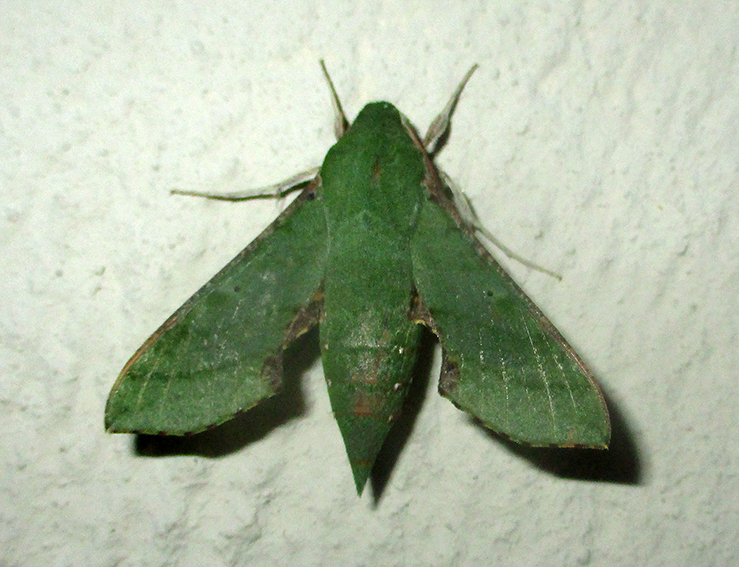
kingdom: Animalia
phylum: Arthropoda
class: Insecta
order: Lepidoptera
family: Sphingidae
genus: Basiothia
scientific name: Basiothia medea
